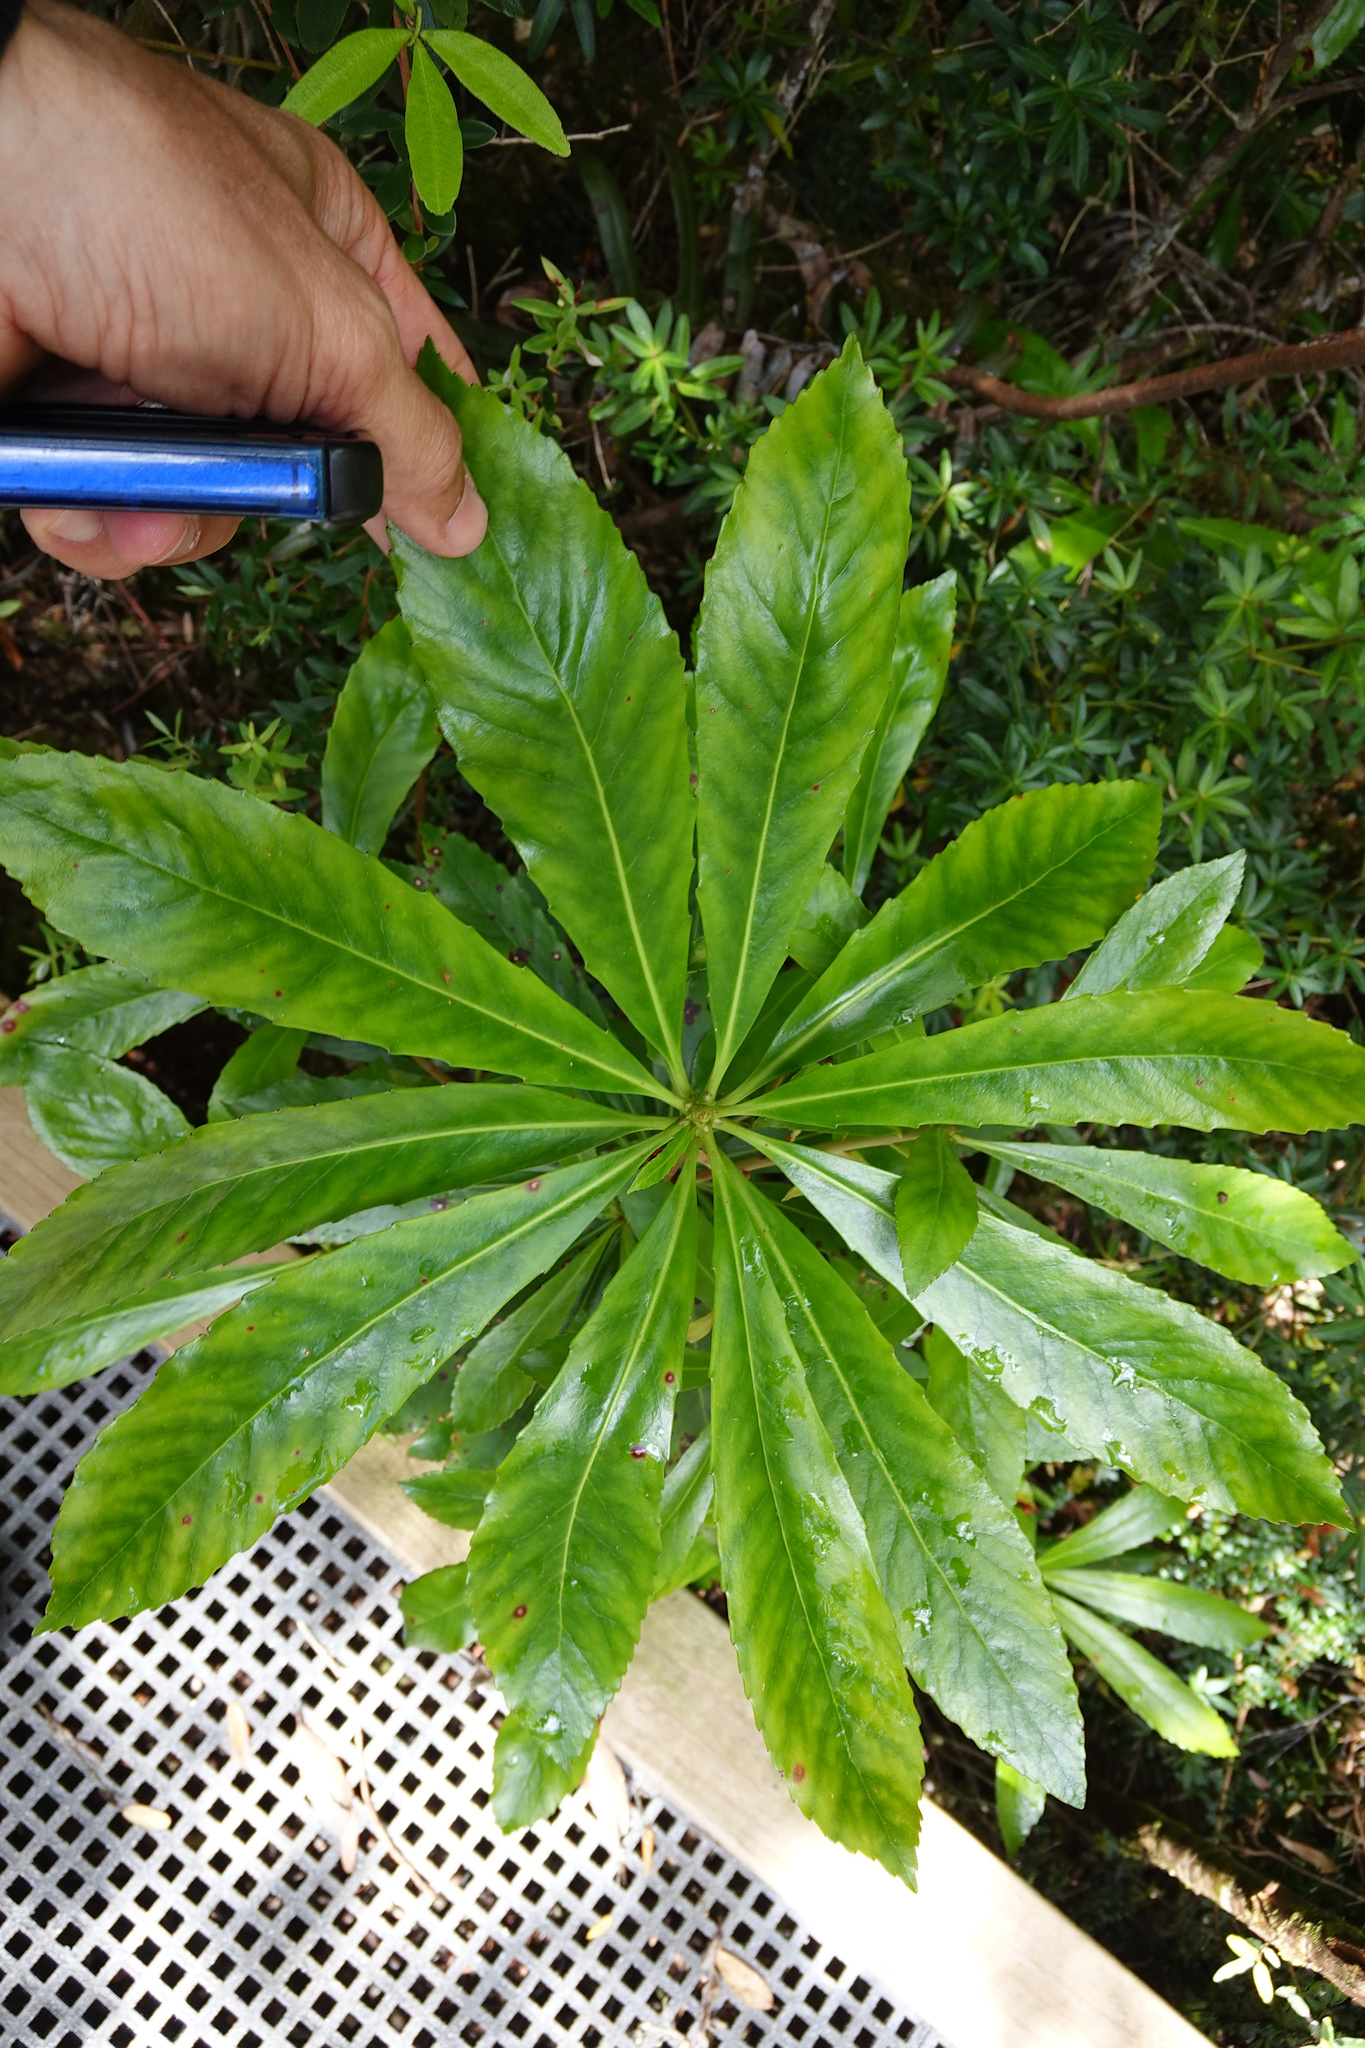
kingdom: Plantae
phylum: Tracheophyta
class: Magnoliopsida
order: Escalloniales
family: Escalloniaceae
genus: Anopterus
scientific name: Anopterus glandulosus
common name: Tasmanian-laurel
